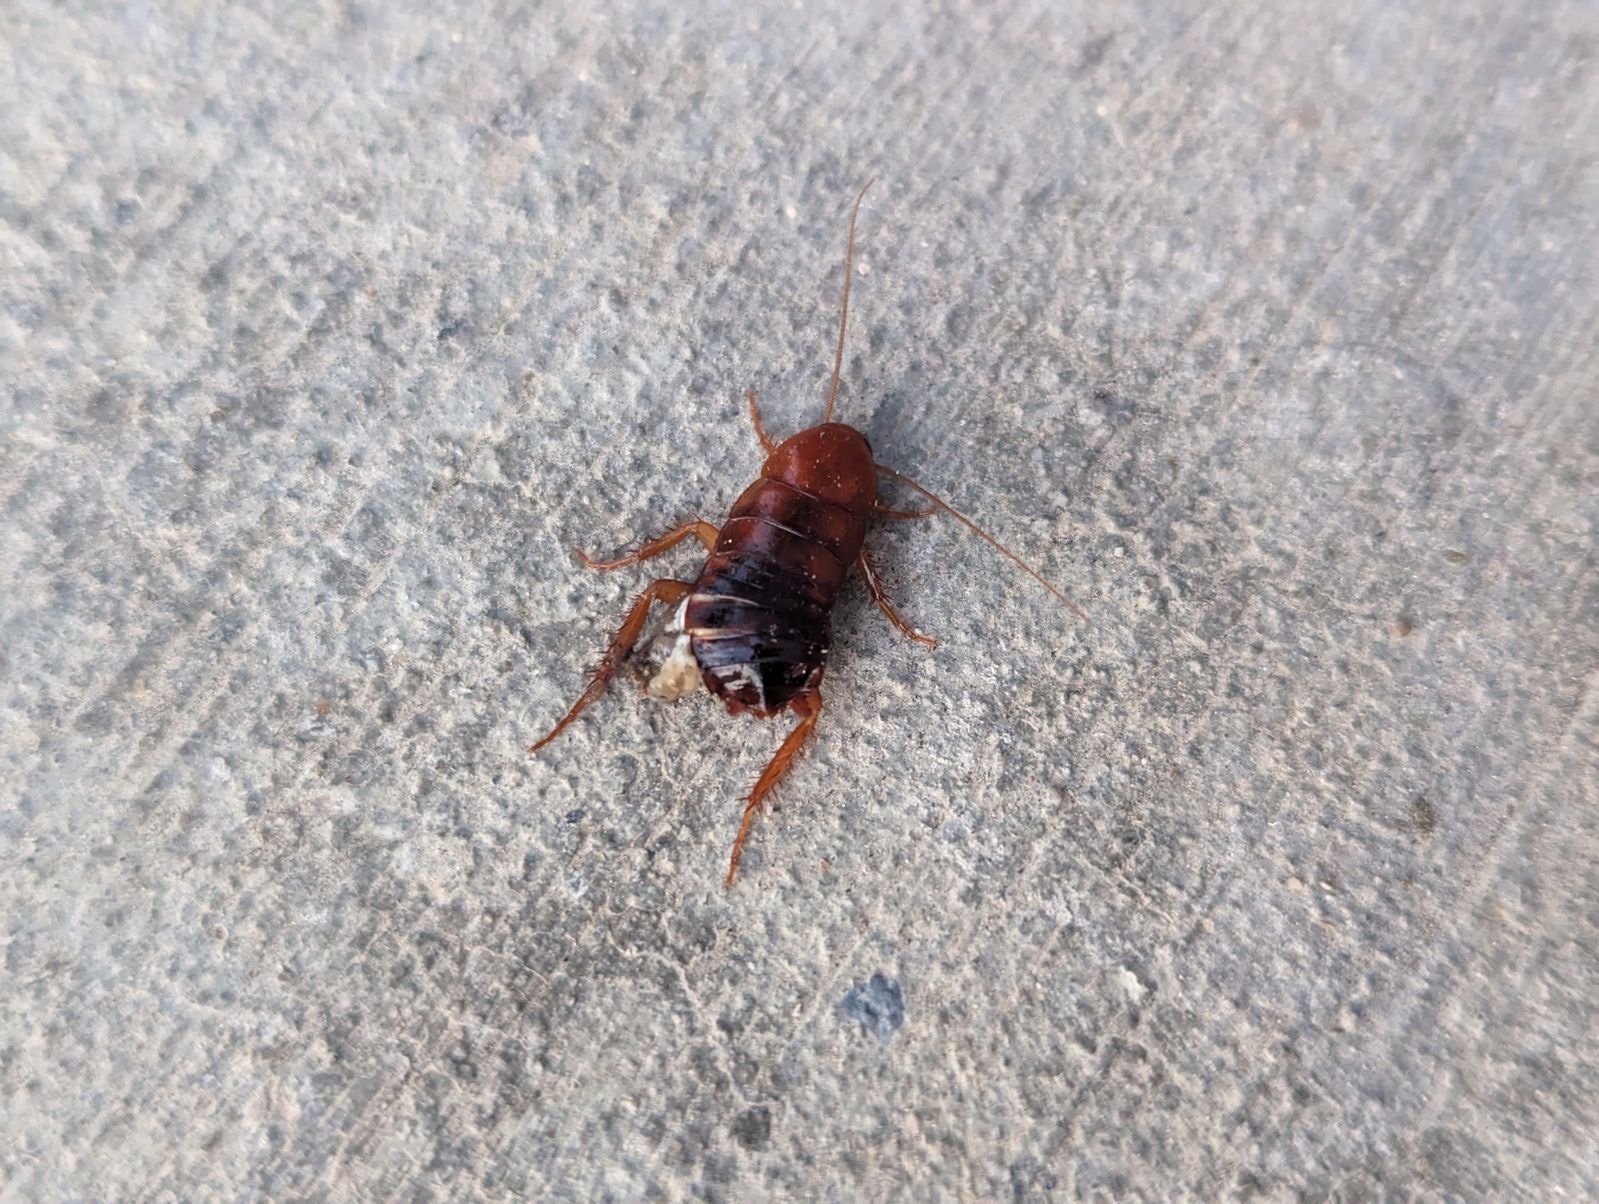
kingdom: Animalia
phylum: Arthropoda
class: Insecta
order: Blattodea
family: Blattidae
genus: Periplaneta
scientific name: Periplaneta lateralis
